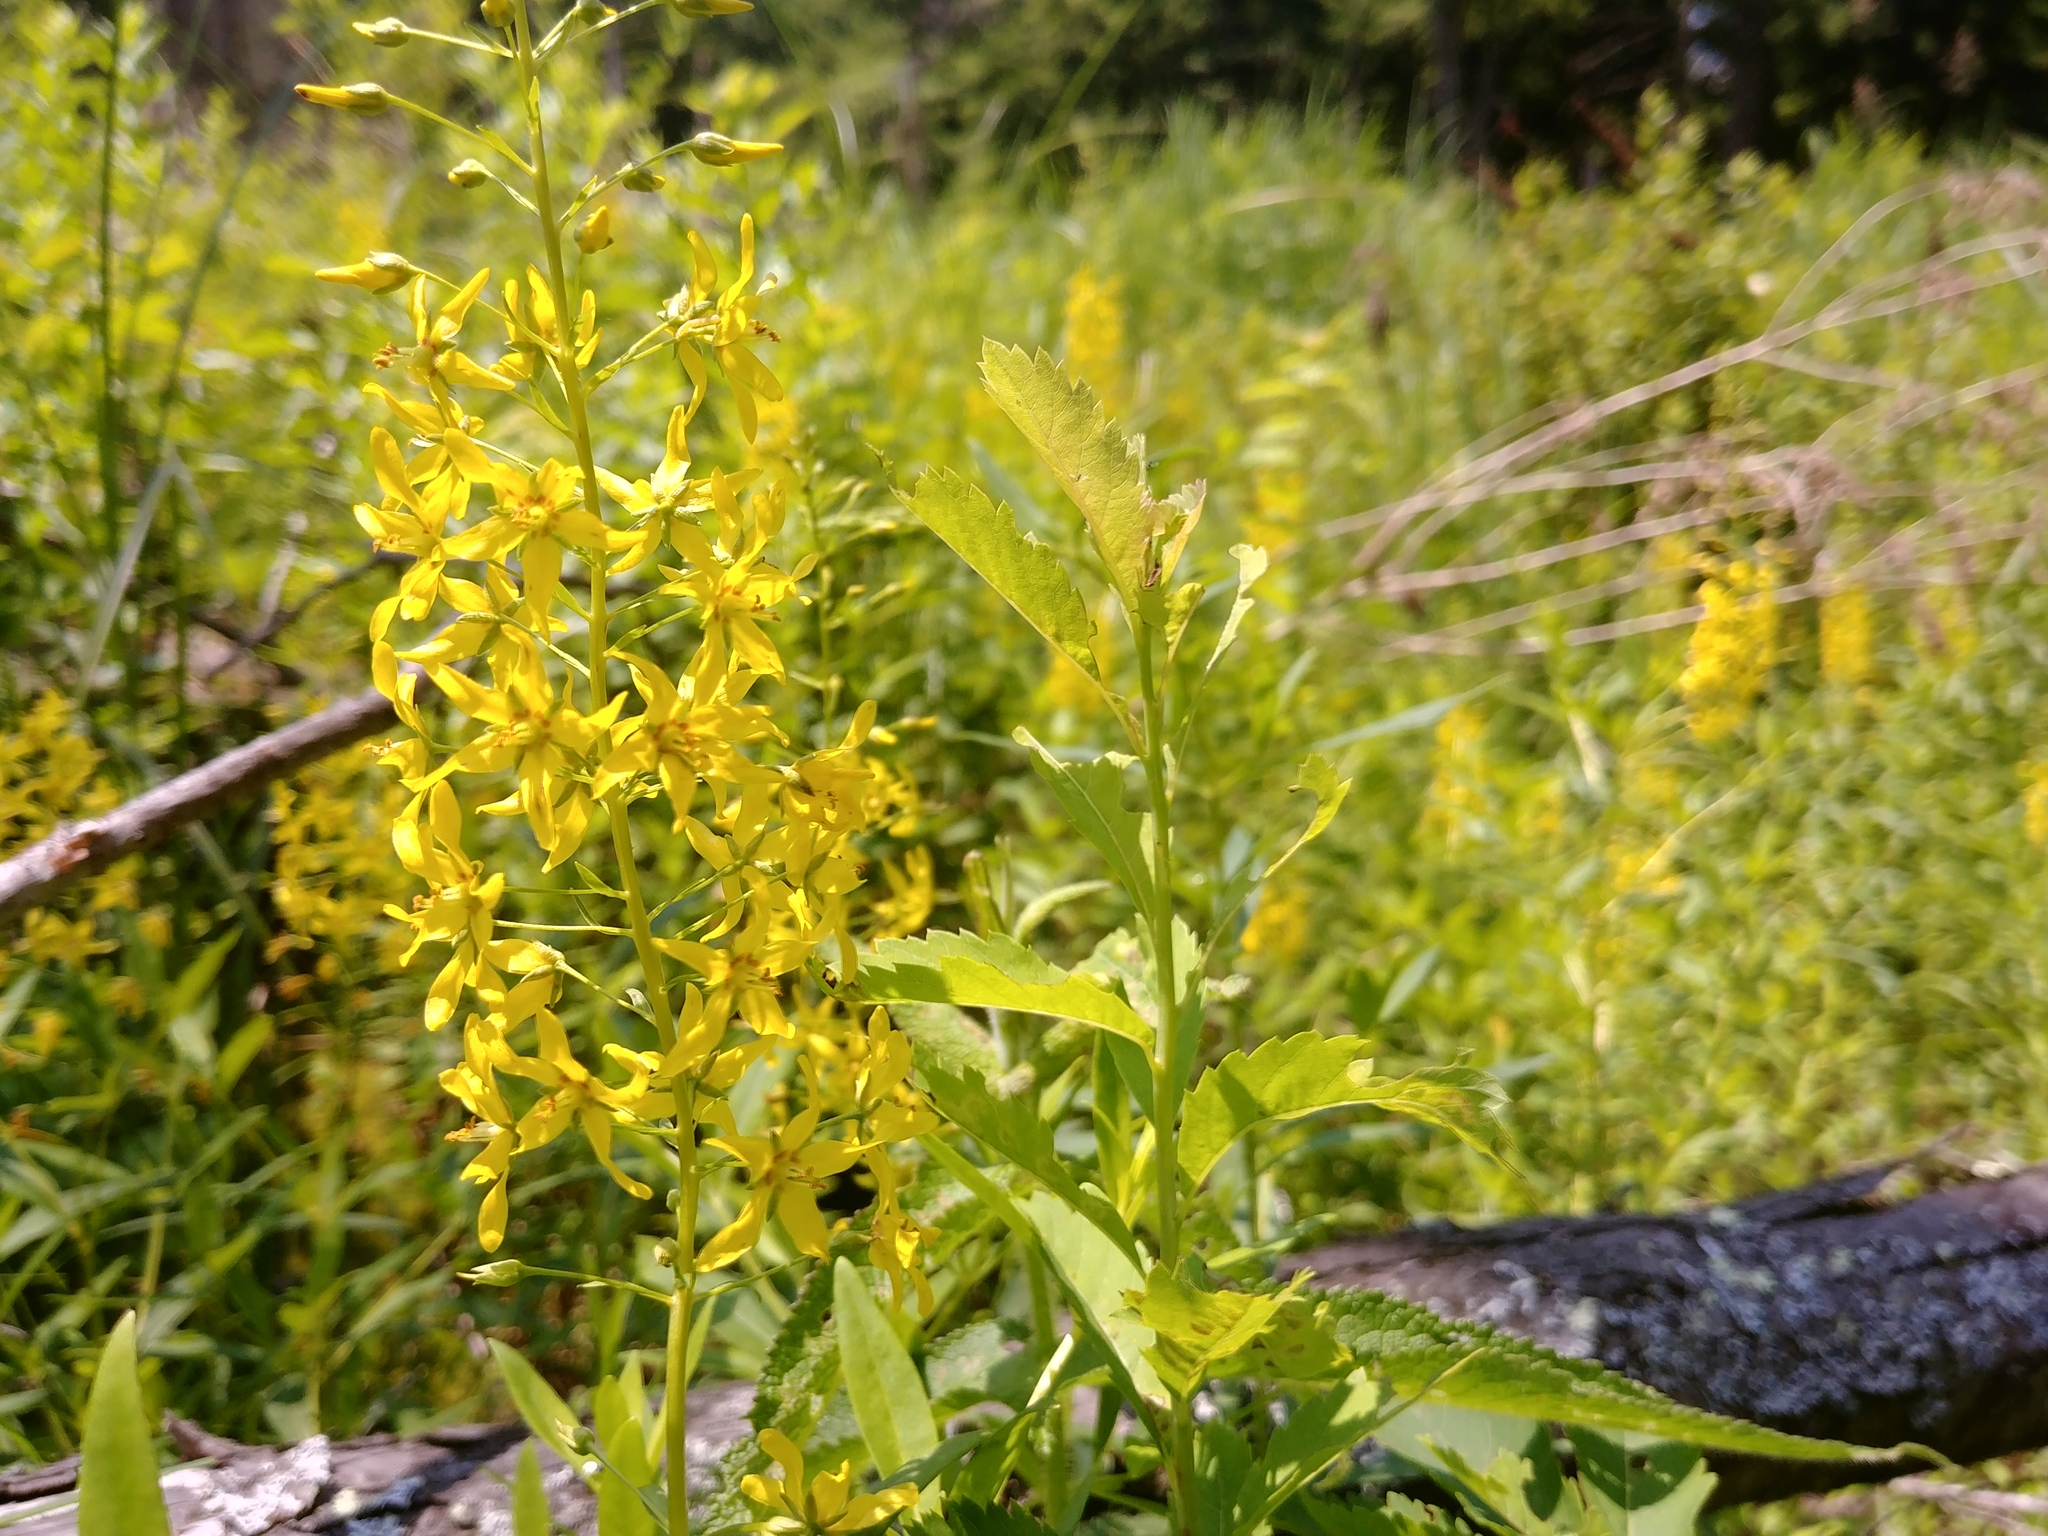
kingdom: Plantae
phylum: Tracheophyta
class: Magnoliopsida
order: Ericales
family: Primulaceae
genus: Lysimachia
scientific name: Lysimachia terrestris
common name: Lake loosestrife
